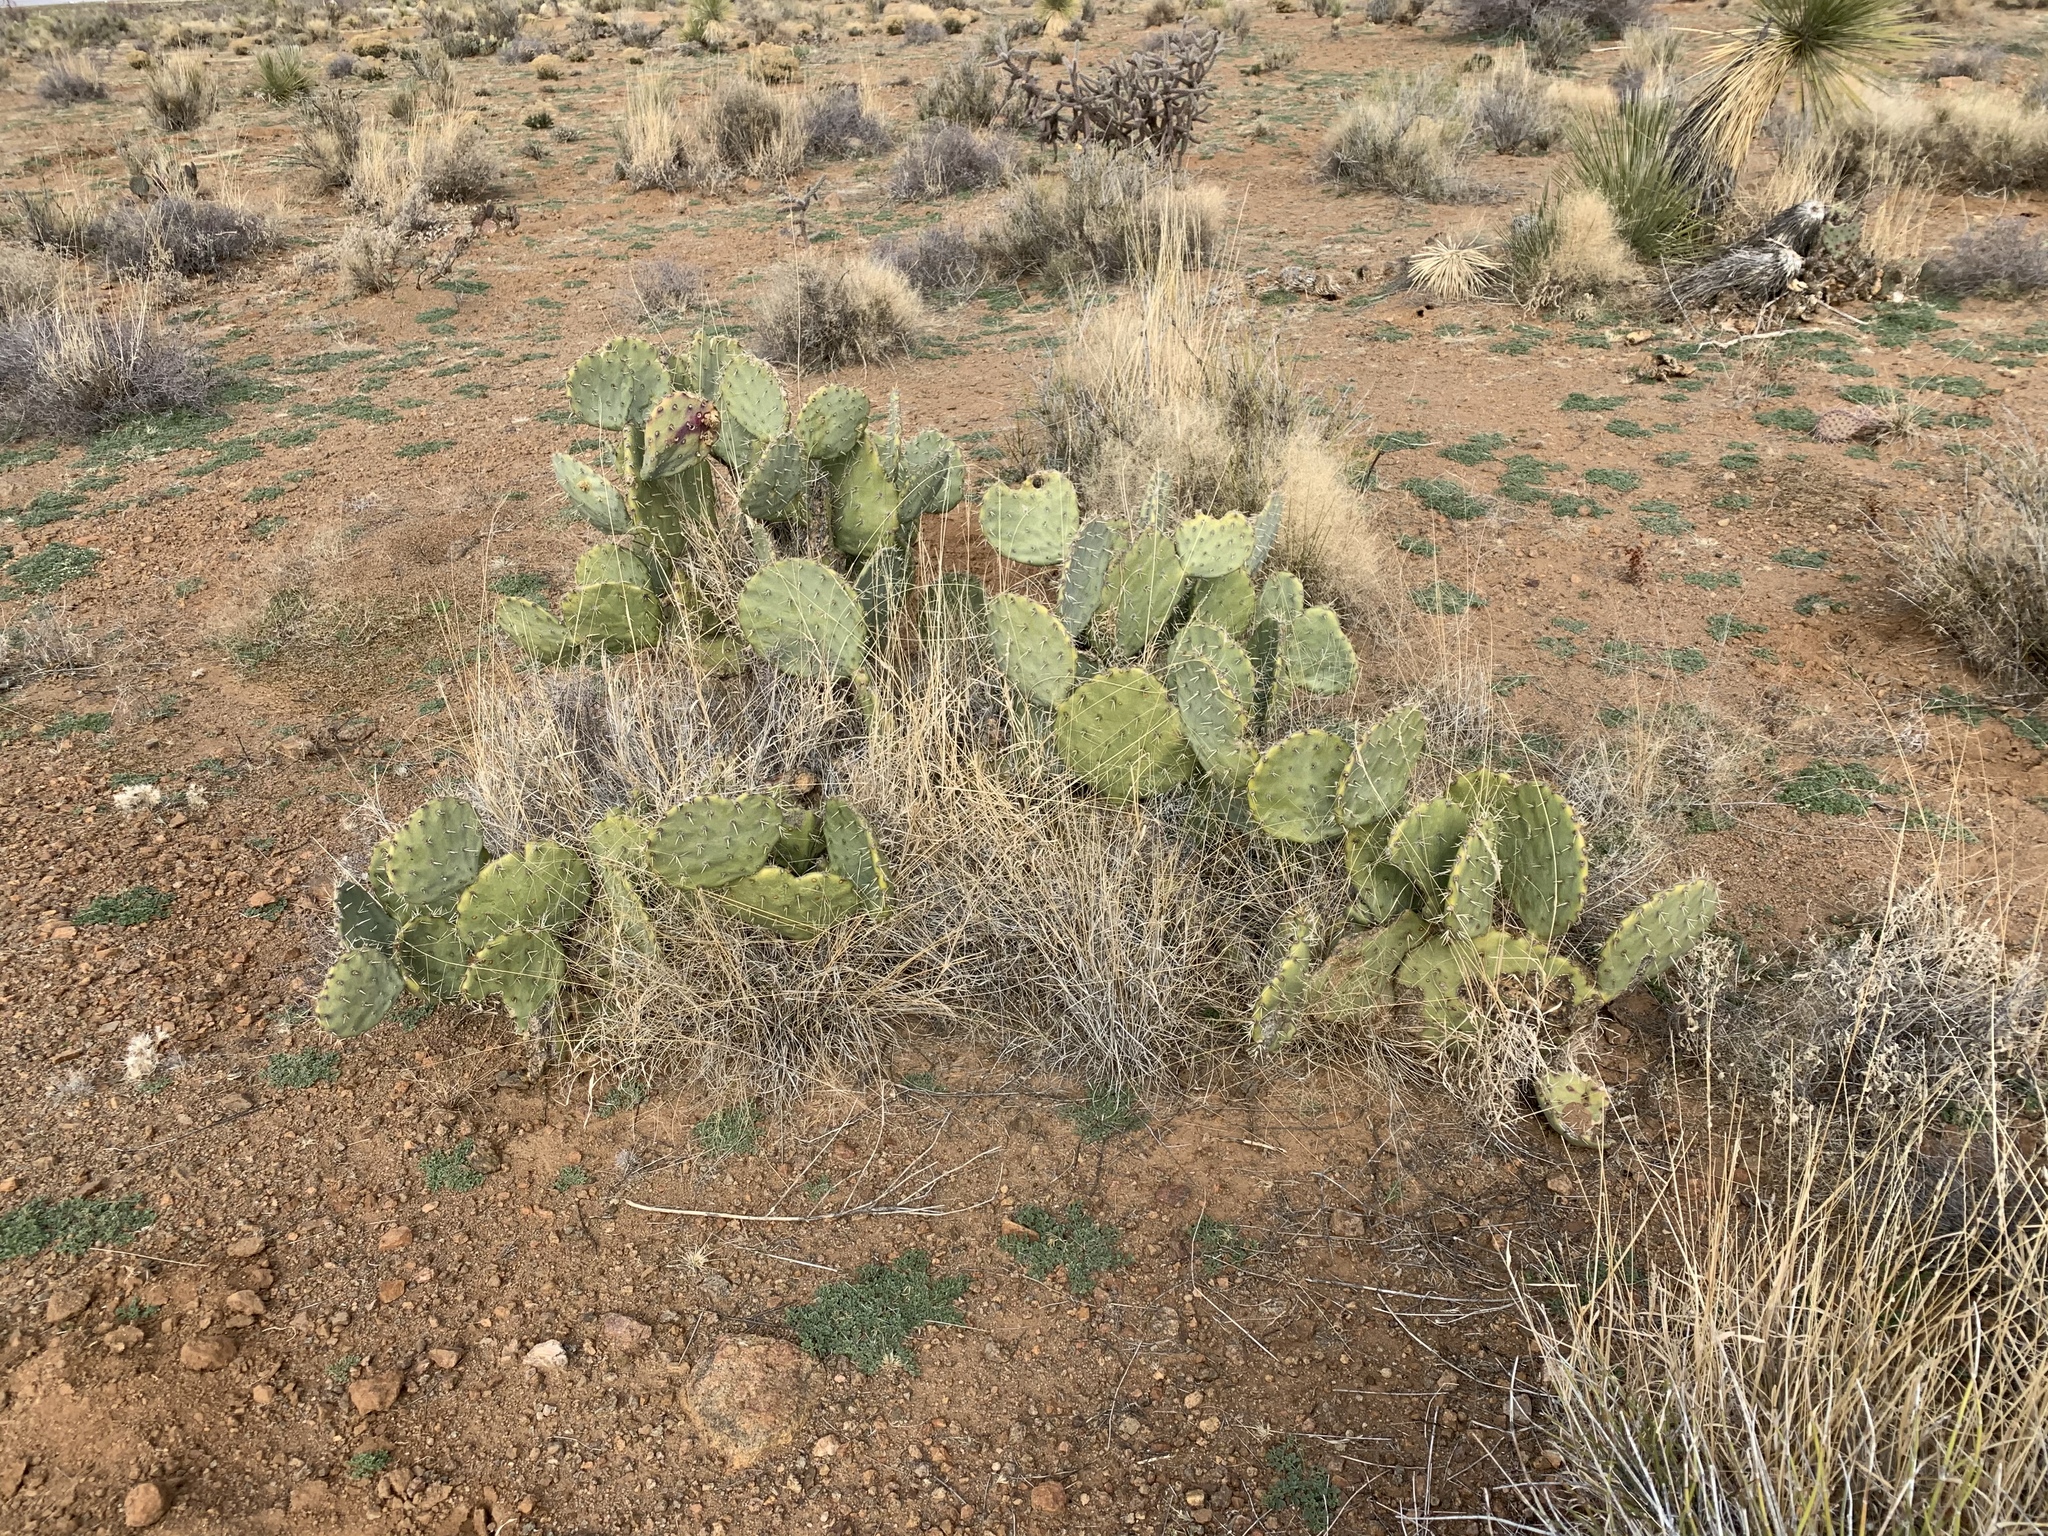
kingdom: Plantae
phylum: Tracheophyta
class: Magnoliopsida
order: Caryophyllales
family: Cactaceae
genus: Opuntia
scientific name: Opuntia engelmannii
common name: Cactus-apple
